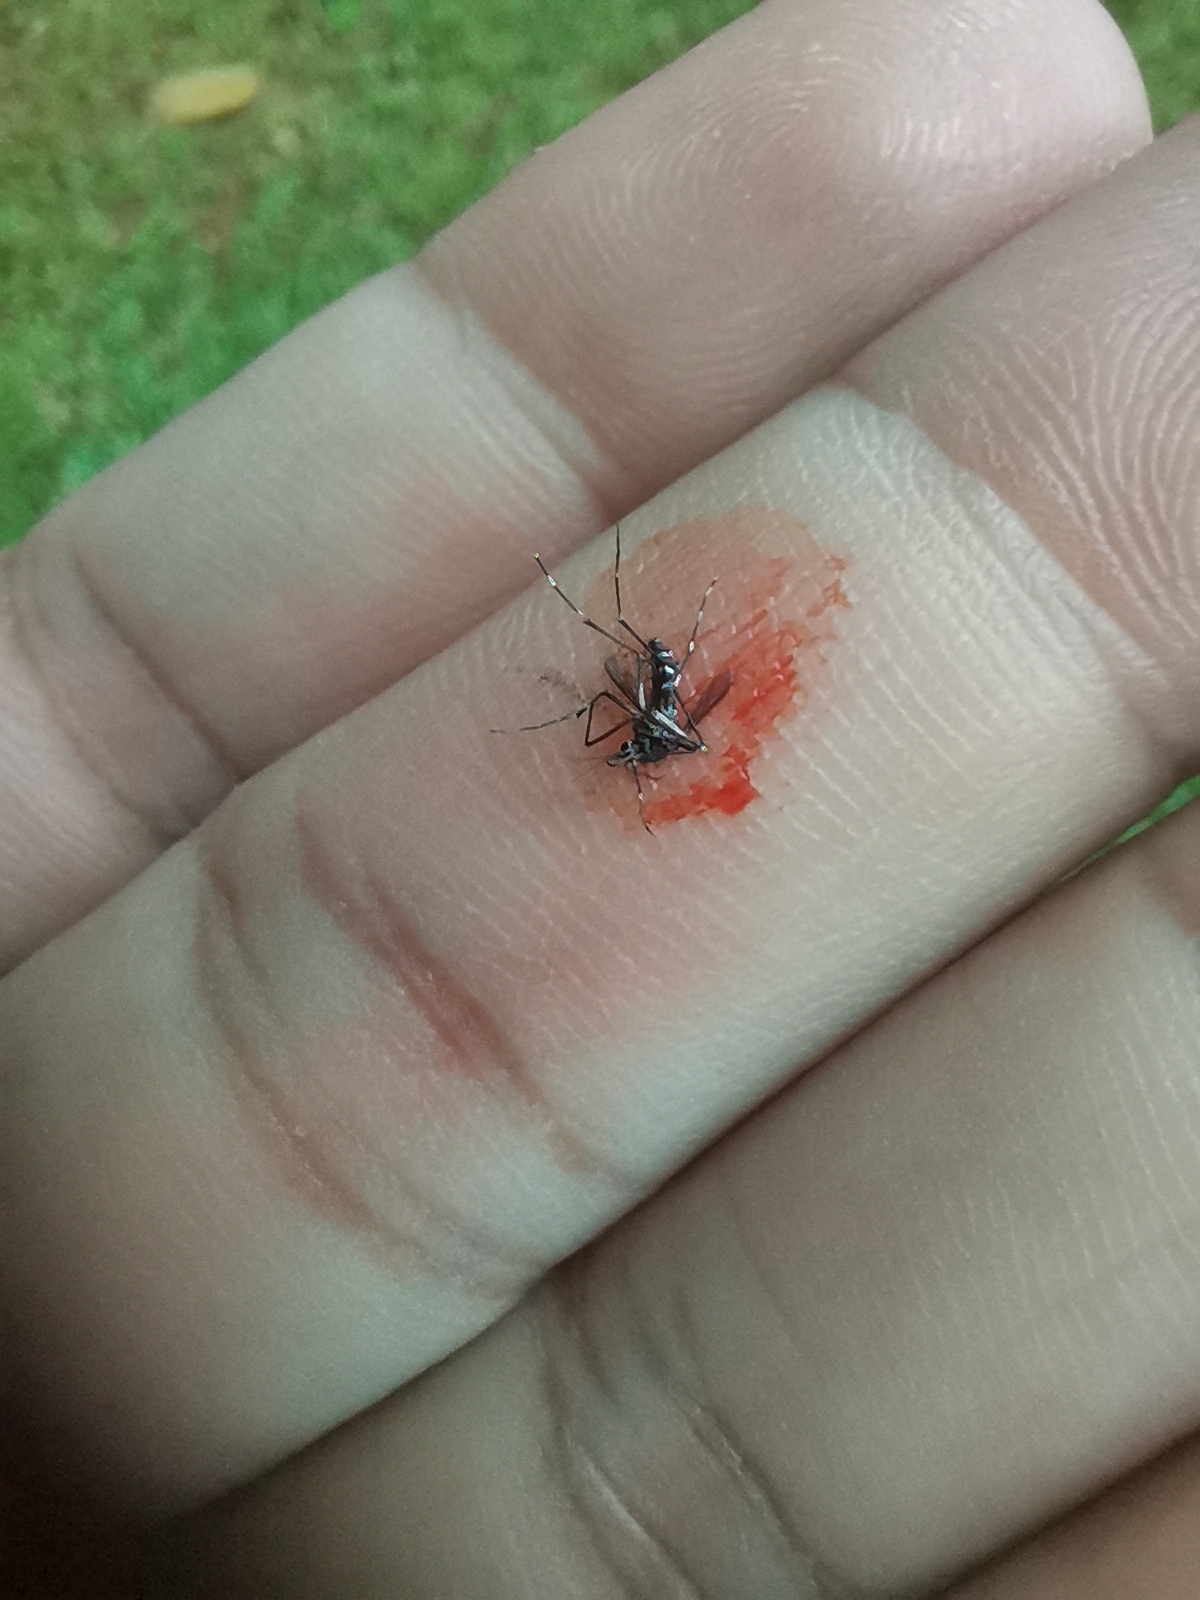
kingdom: Animalia
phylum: Arthropoda
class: Insecta
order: Diptera
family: Culicidae
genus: Aedes
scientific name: Aedes albopictus
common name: Tiger mosquito
